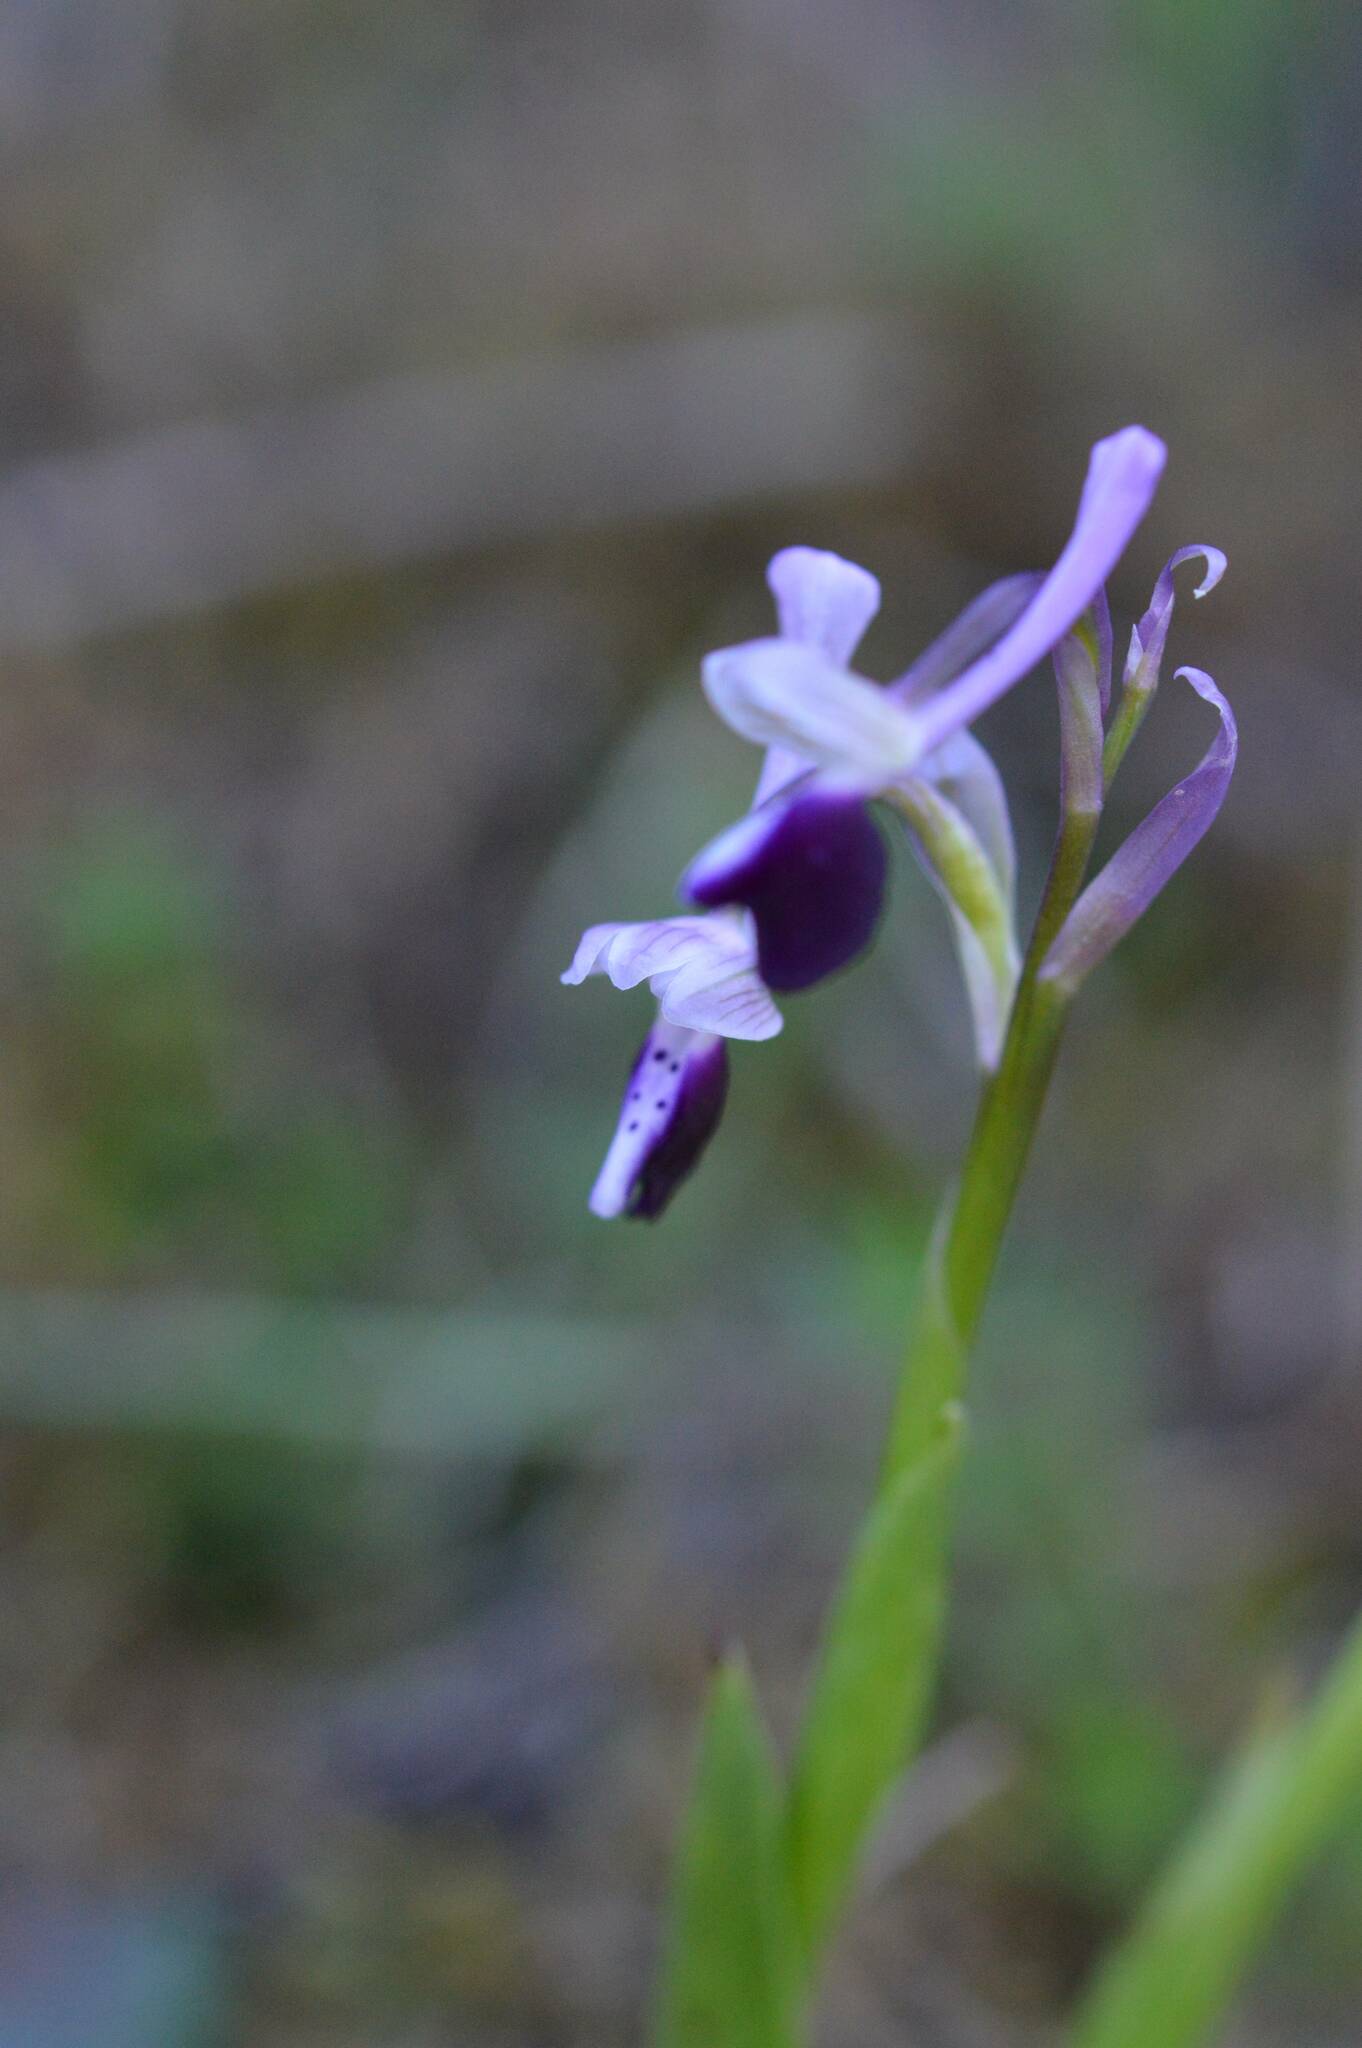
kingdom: Plantae
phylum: Tracheophyta
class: Liliopsida
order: Asparagales
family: Orchidaceae
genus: Anacamptis
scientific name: Anacamptis morio
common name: Green-winged orchid
